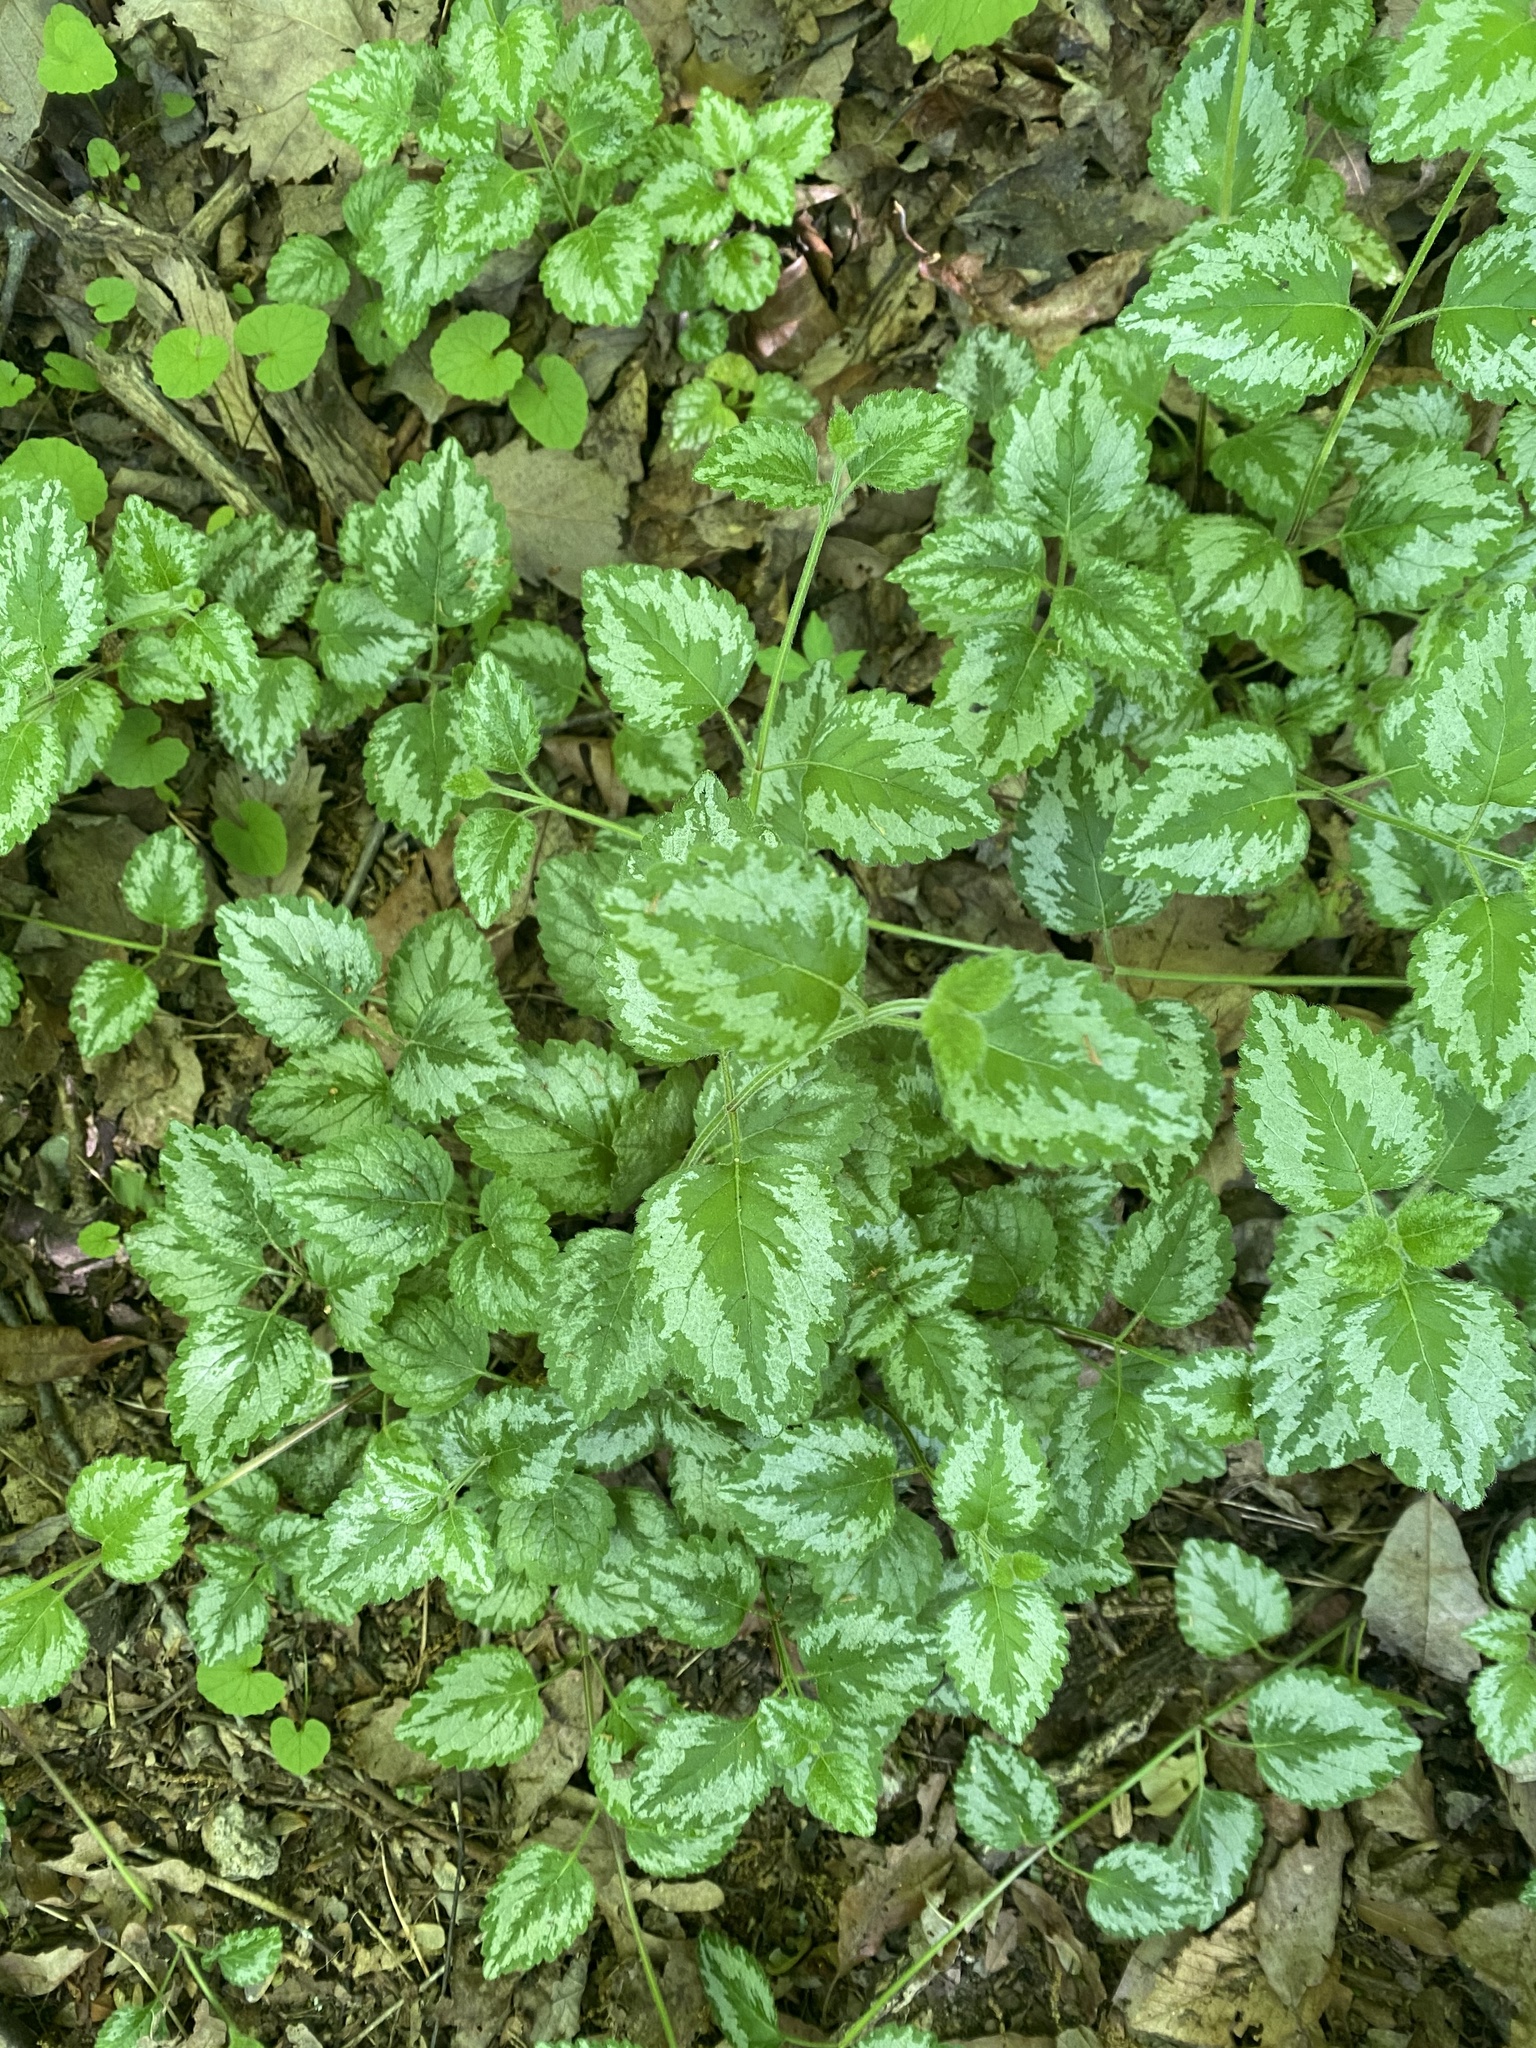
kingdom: Plantae
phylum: Tracheophyta
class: Magnoliopsida
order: Lamiales
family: Lamiaceae
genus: Lamium
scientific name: Lamium galeobdolon
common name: Yellow archangel
